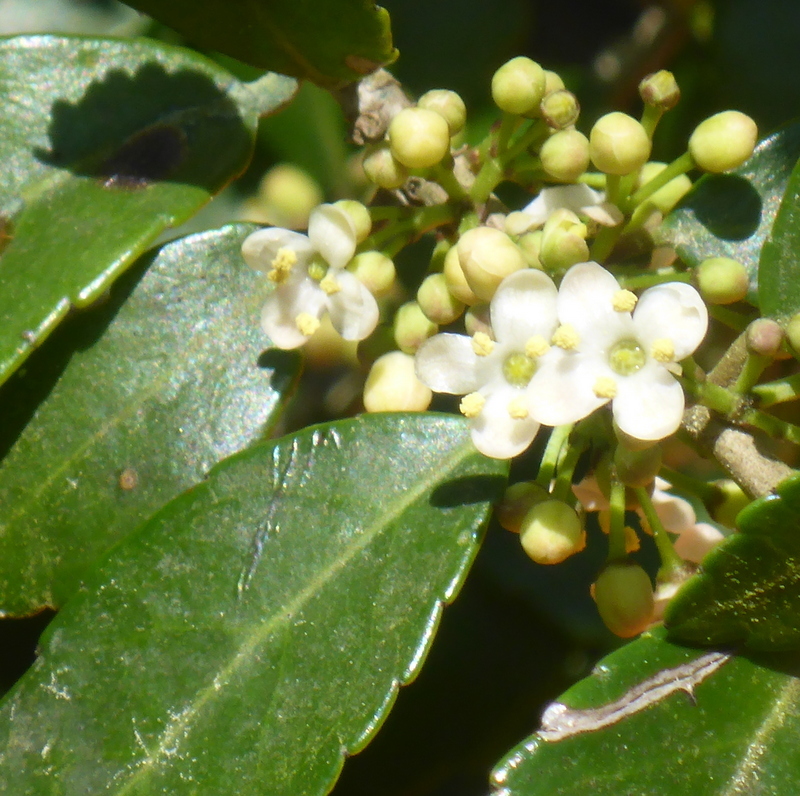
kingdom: Plantae
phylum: Tracheophyta
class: Magnoliopsida
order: Aquifoliales
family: Aquifoliaceae
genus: Ilex
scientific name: Ilex vomitoria
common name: Yaupon holly
